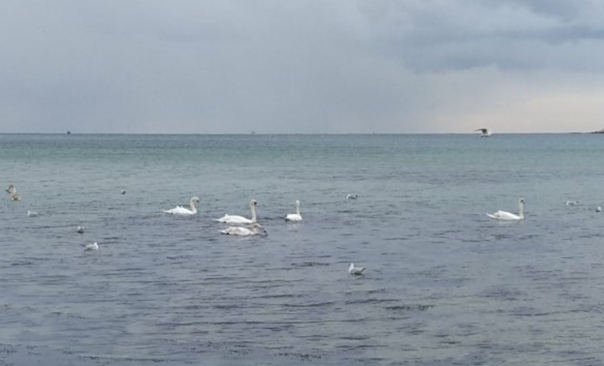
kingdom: Animalia
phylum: Chordata
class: Aves
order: Anseriformes
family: Anatidae
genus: Cygnus
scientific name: Cygnus olor
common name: Mute swan
